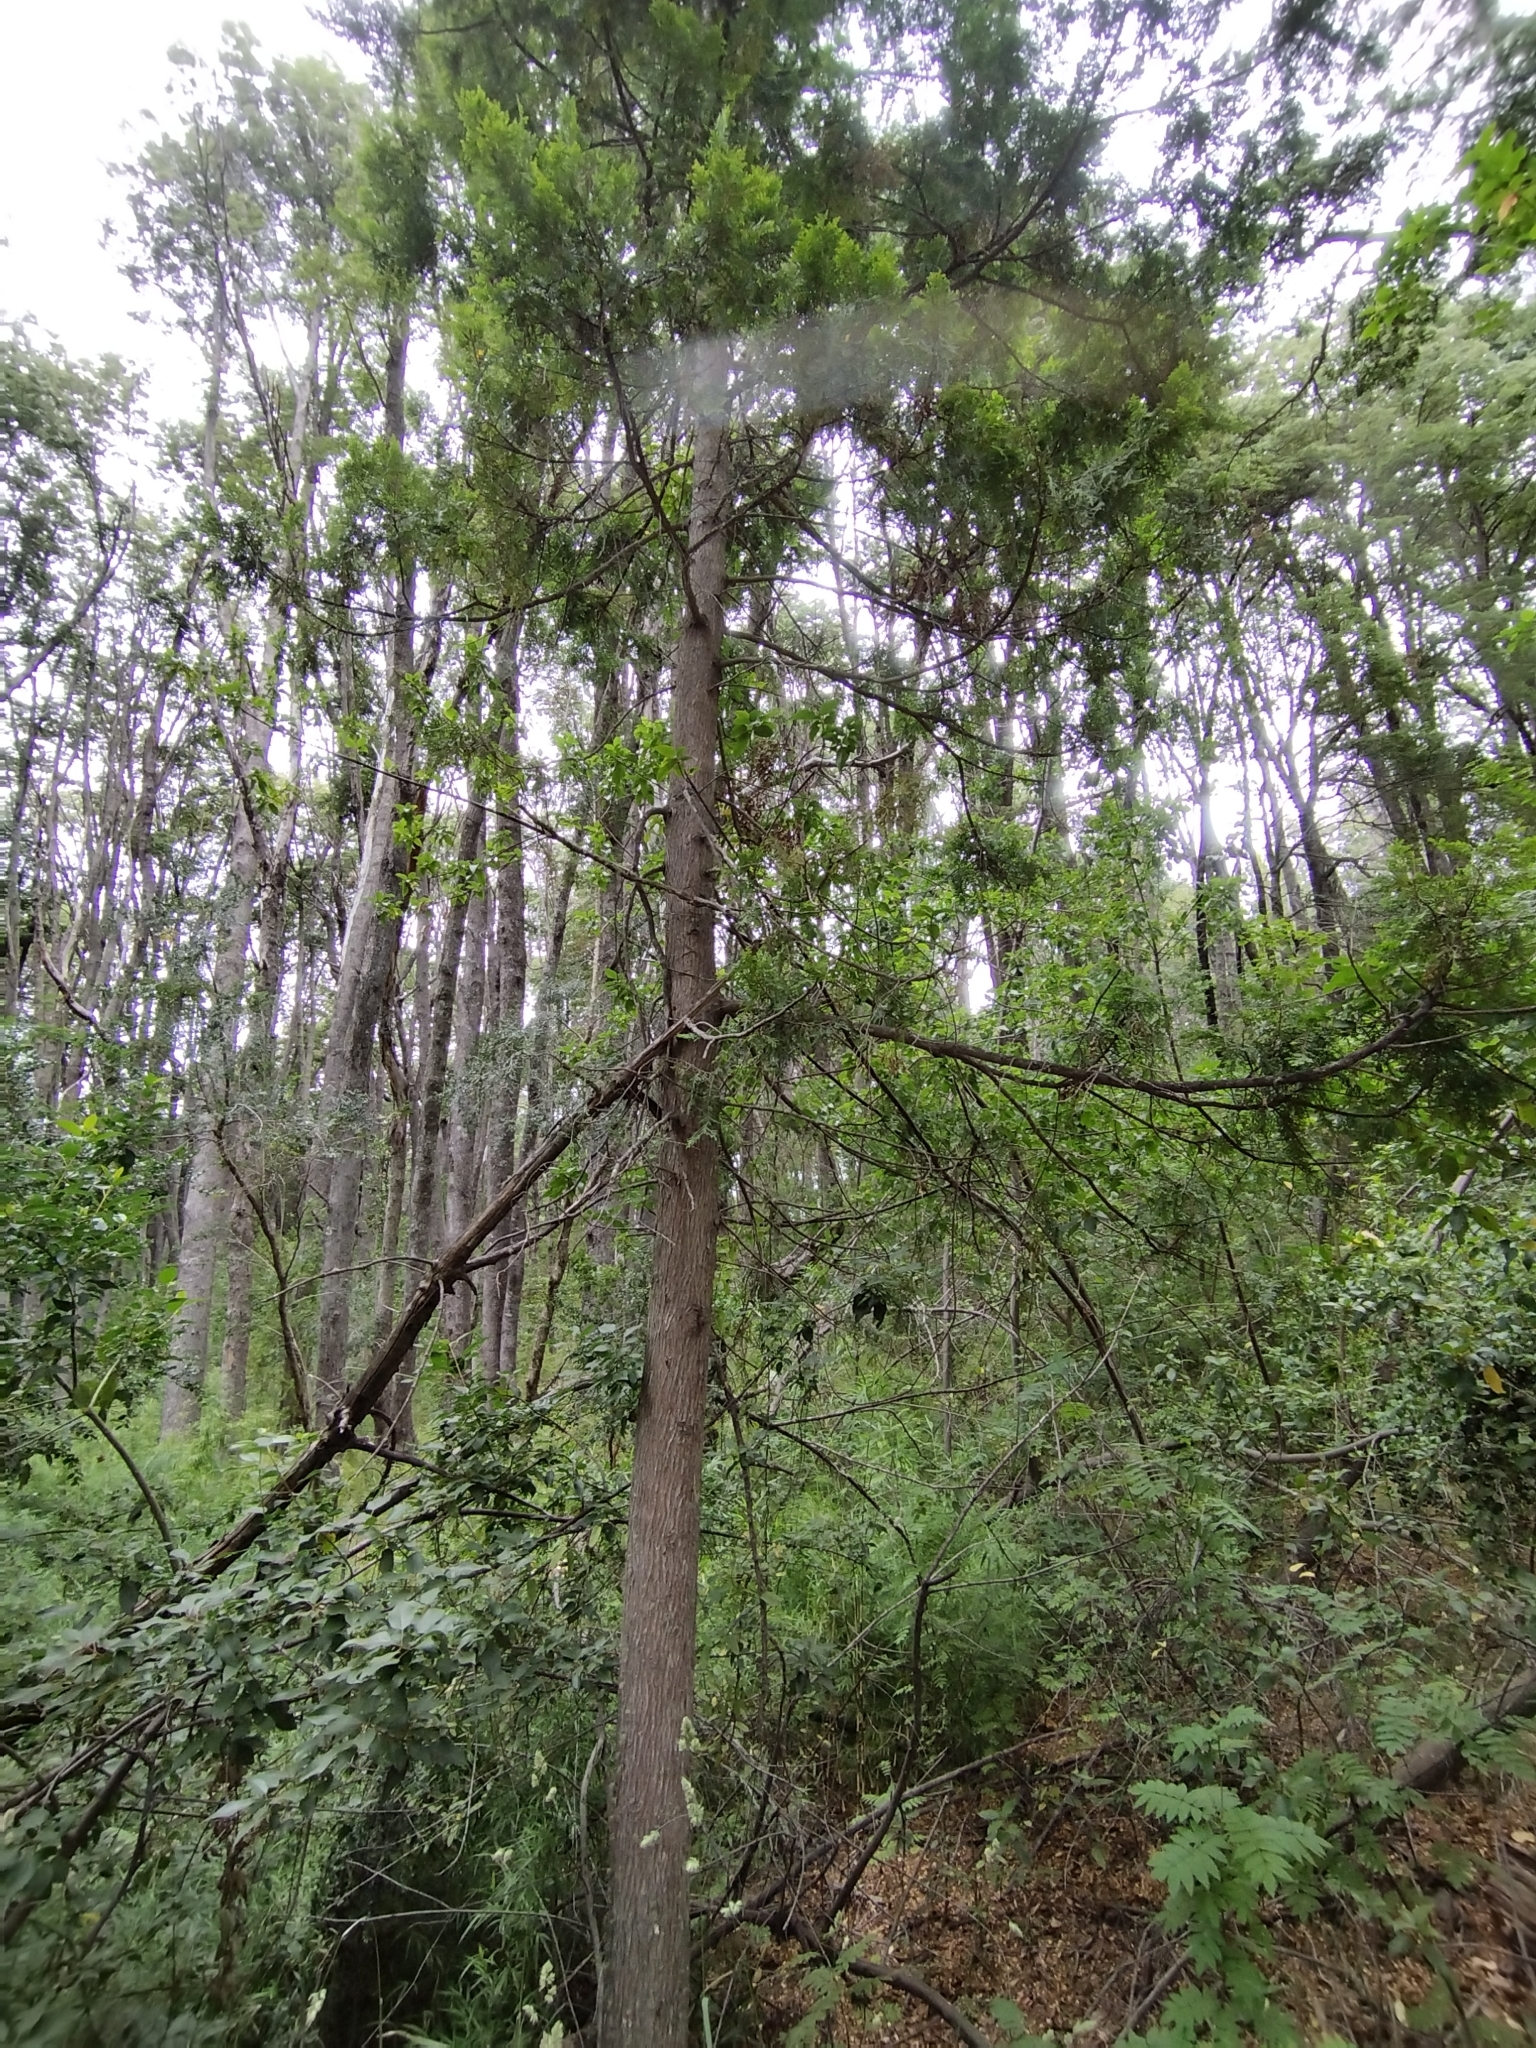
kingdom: Plantae
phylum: Tracheophyta
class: Pinopsida
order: Pinales
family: Cupressaceae
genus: Austrocedrus
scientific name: Austrocedrus chilensis
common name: Chilean incense-cedar
